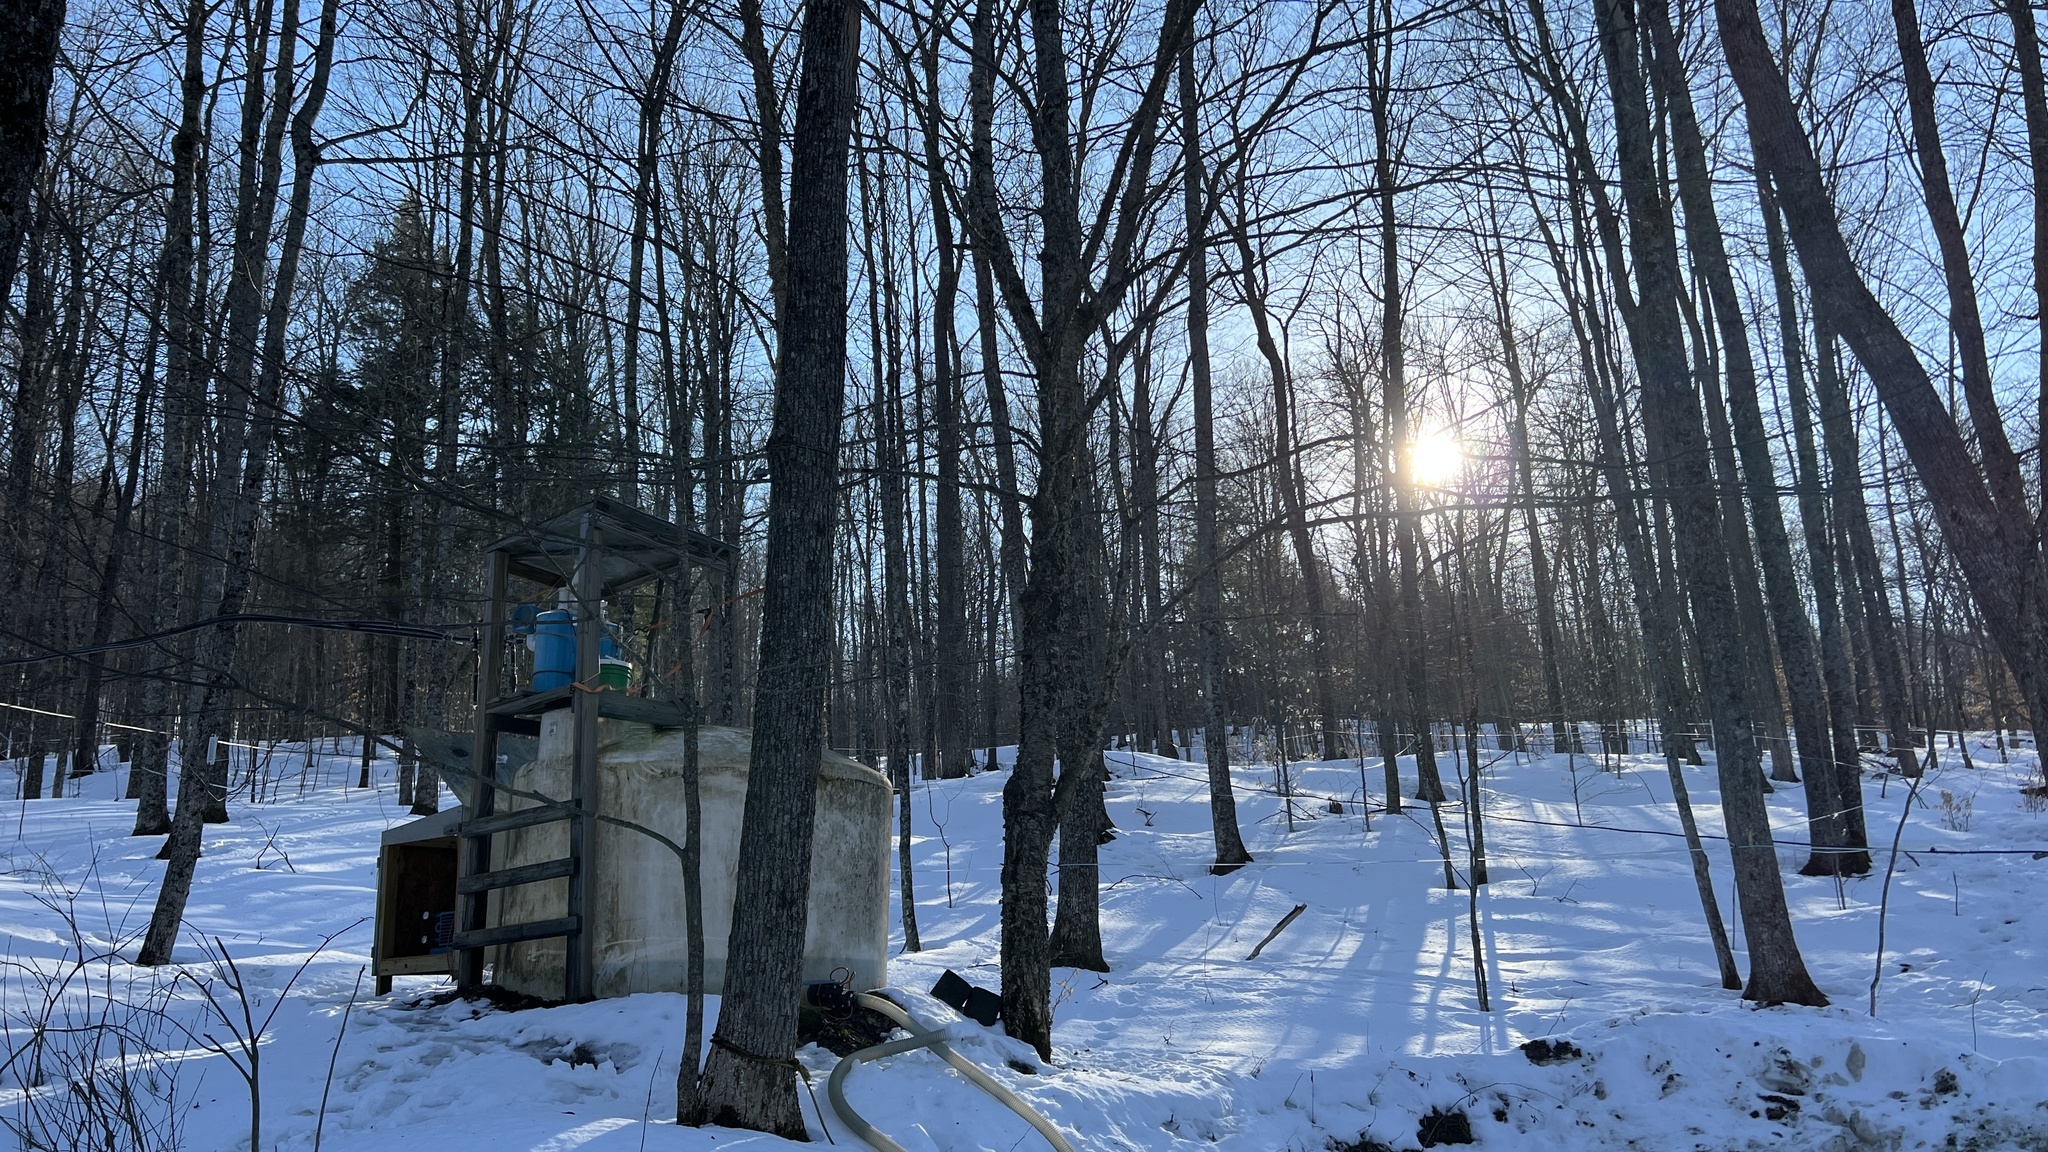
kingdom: Plantae
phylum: Tracheophyta
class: Magnoliopsida
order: Sapindales
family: Sapindaceae
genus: Acer
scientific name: Acer saccharum
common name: Sugar maple
